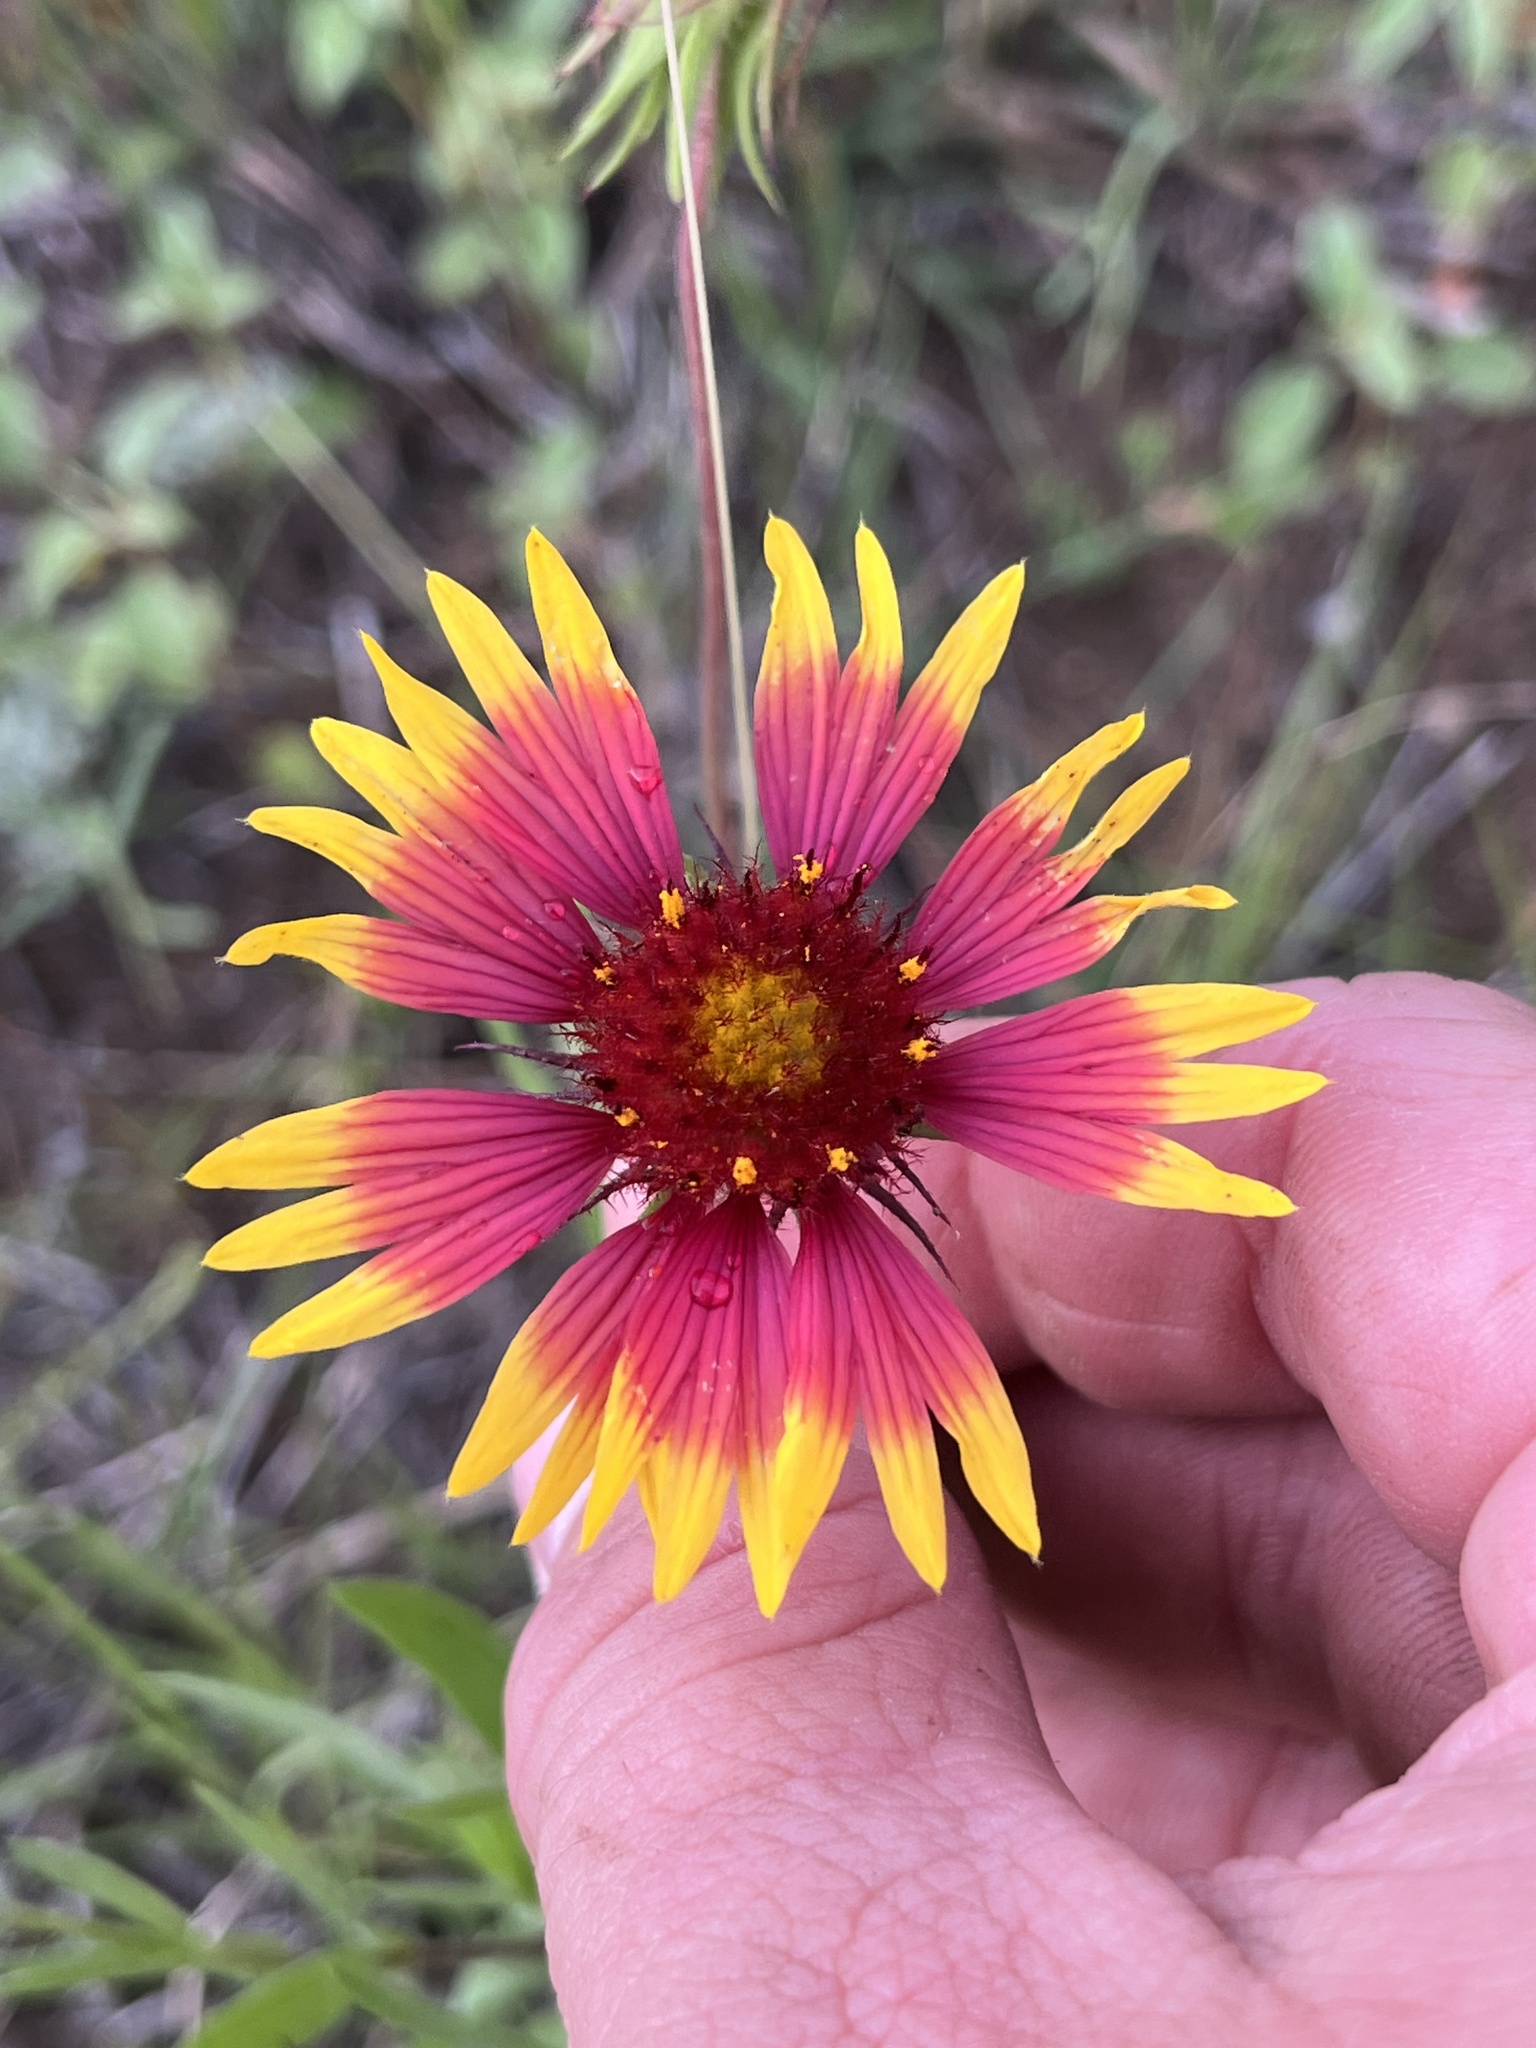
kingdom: Plantae
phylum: Tracheophyta
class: Magnoliopsida
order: Asterales
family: Asteraceae
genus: Gaillardia
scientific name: Gaillardia pulchella
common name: Firewheel
